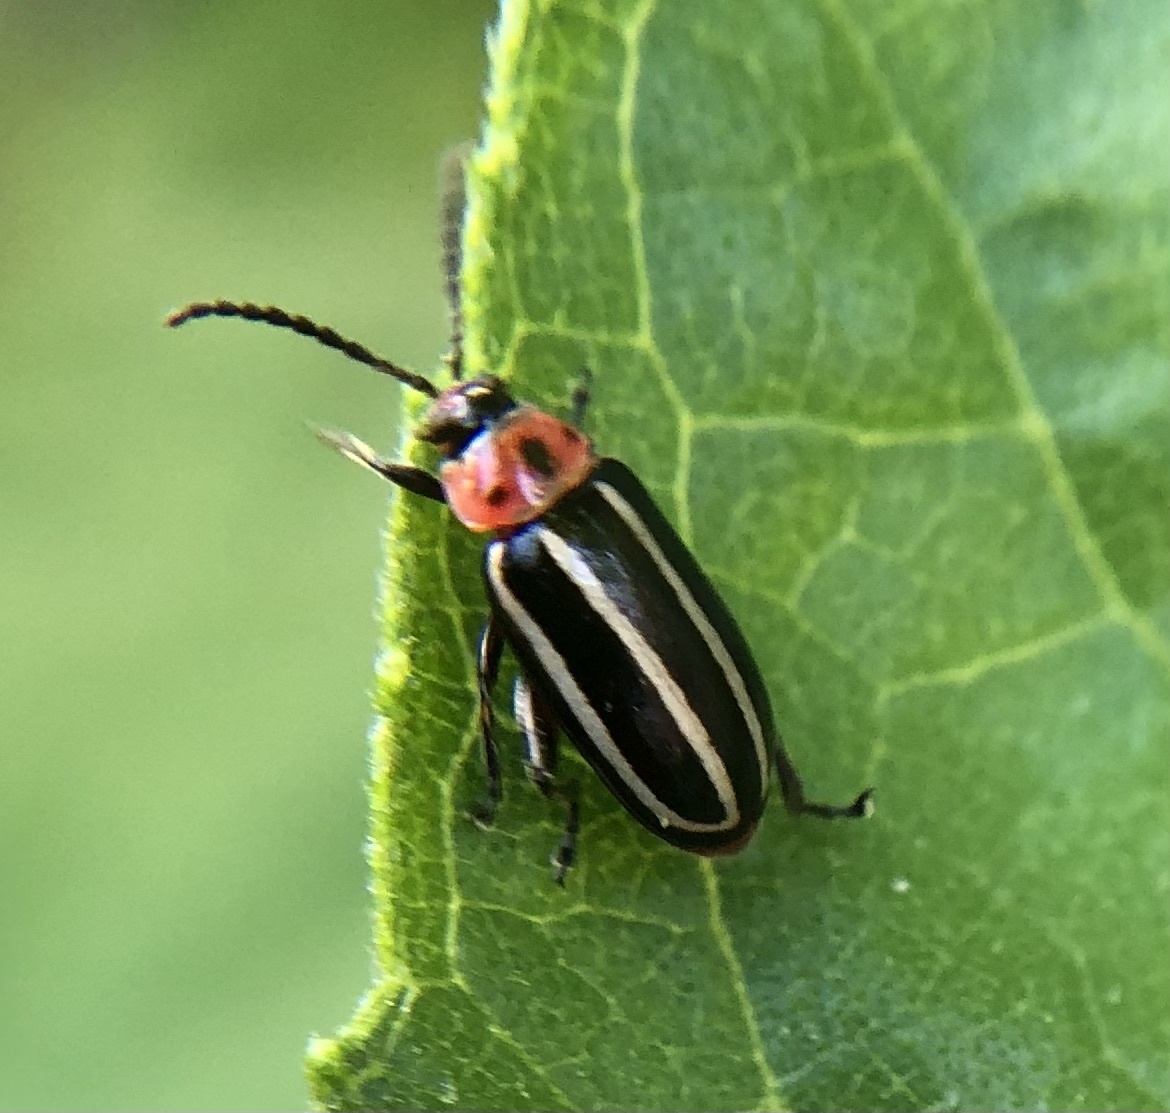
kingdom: Animalia
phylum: Arthropoda
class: Insecta
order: Coleoptera
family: Chrysomelidae
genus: Disonycha
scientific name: Disonycha glabrata
